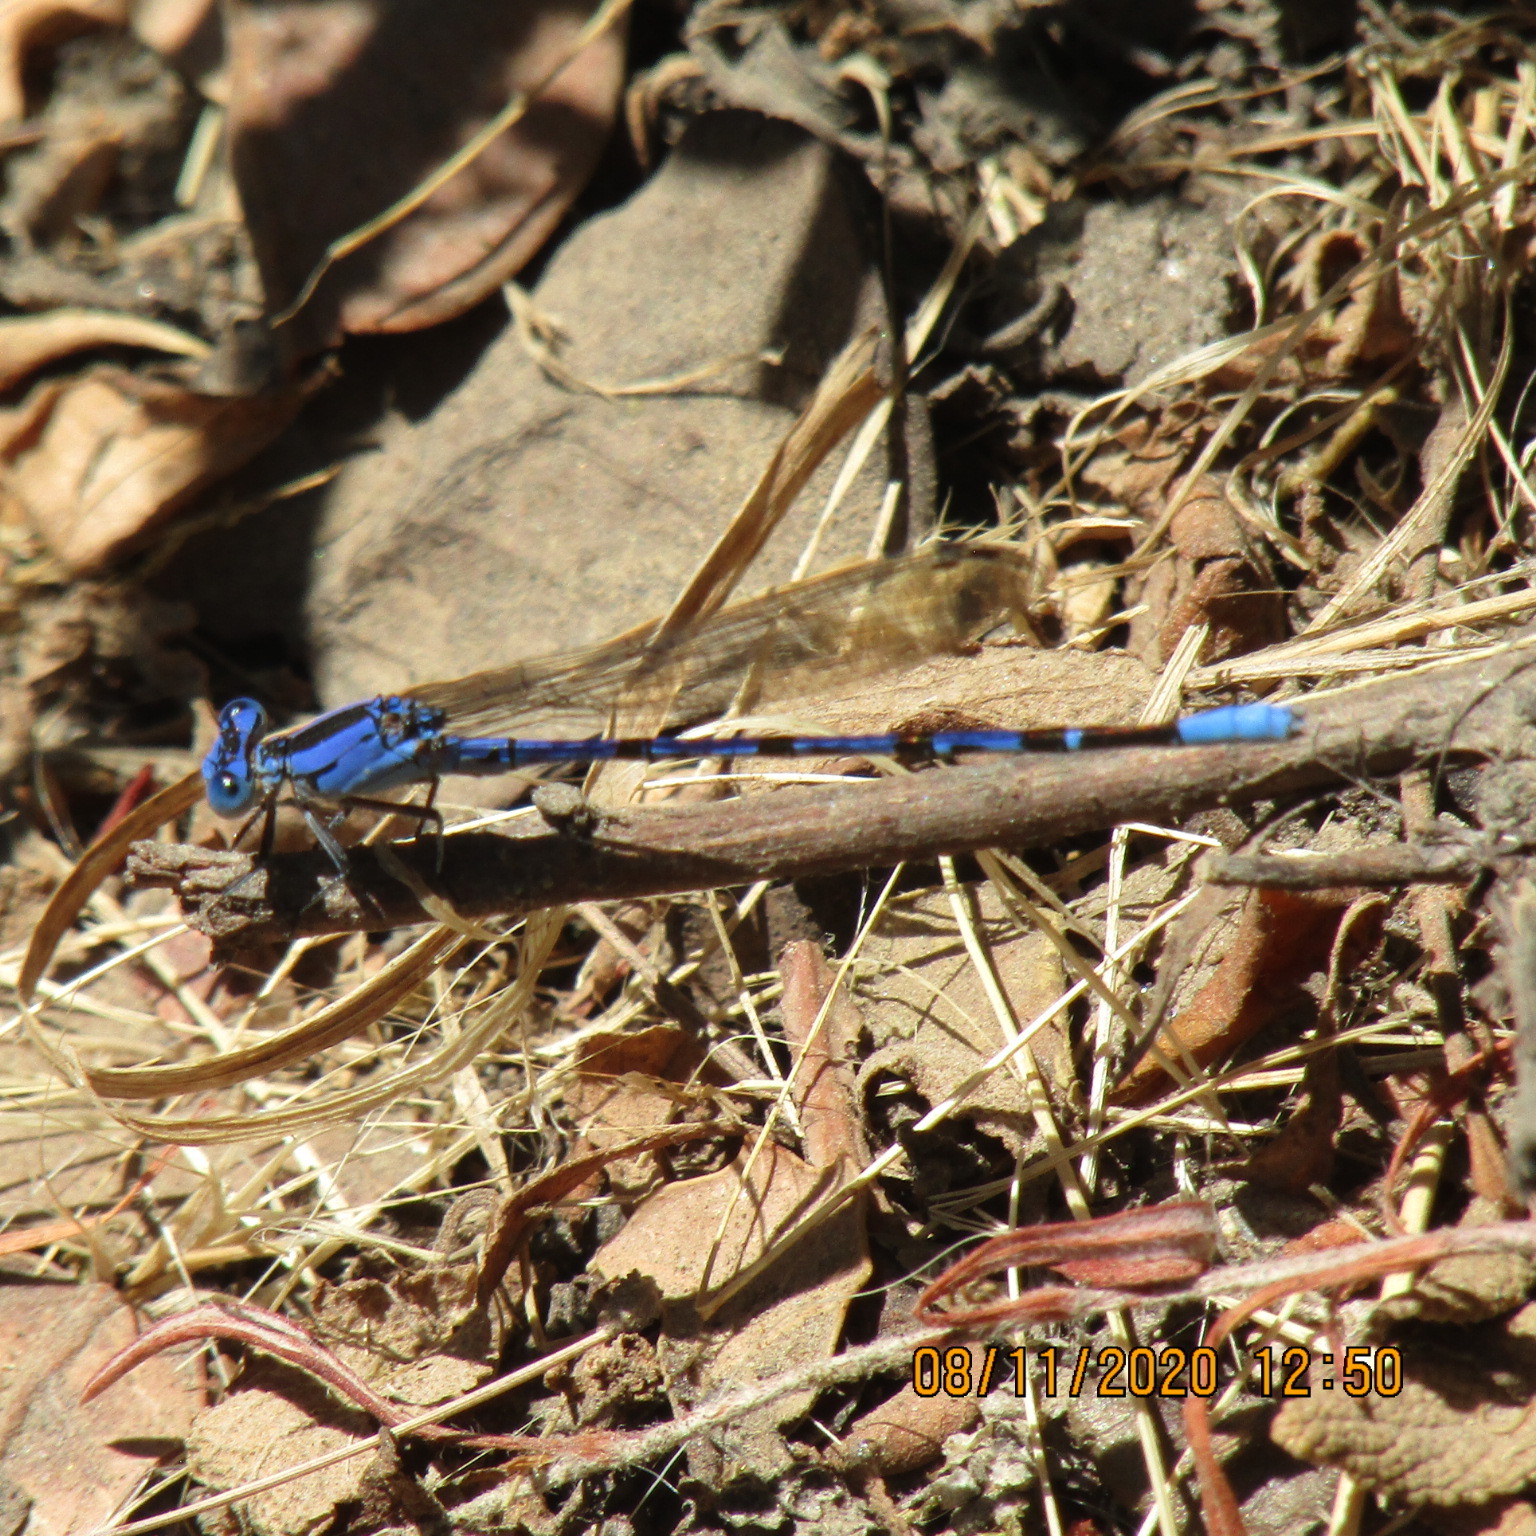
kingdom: Animalia
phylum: Arthropoda
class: Insecta
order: Odonata
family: Coenagrionidae
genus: Argia
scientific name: Argia vivida
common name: Vivid dancer
